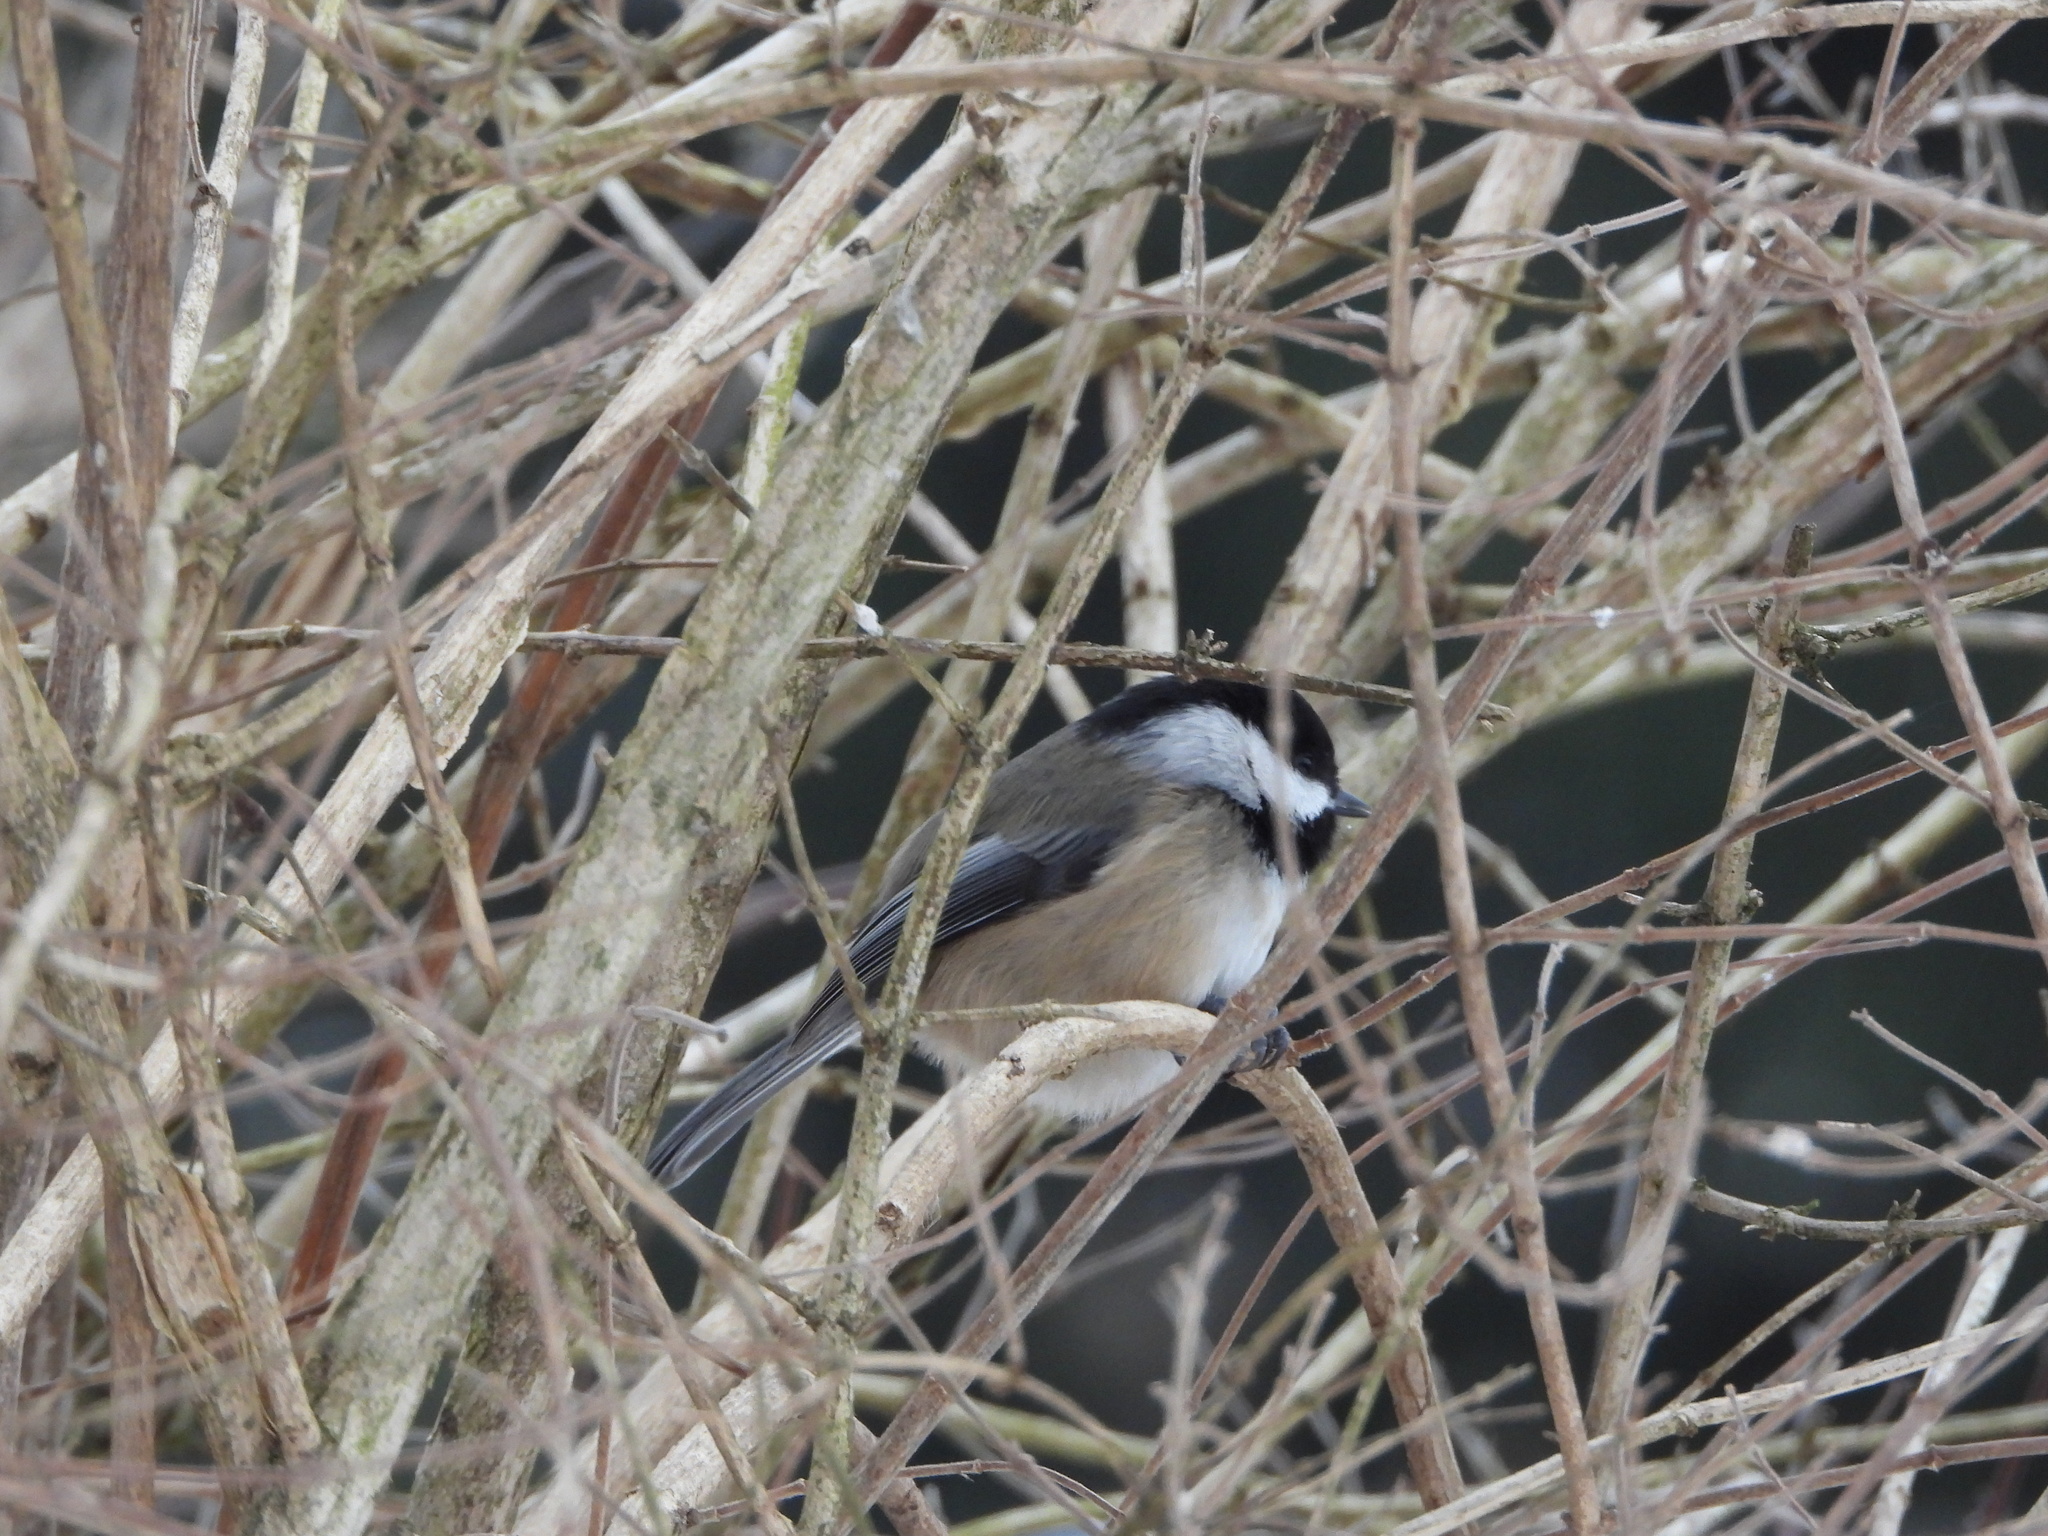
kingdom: Animalia
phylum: Chordata
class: Aves
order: Passeriformes
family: Paridae
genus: Poecile
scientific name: Poecile atricapillus
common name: Black-capped chickadee
